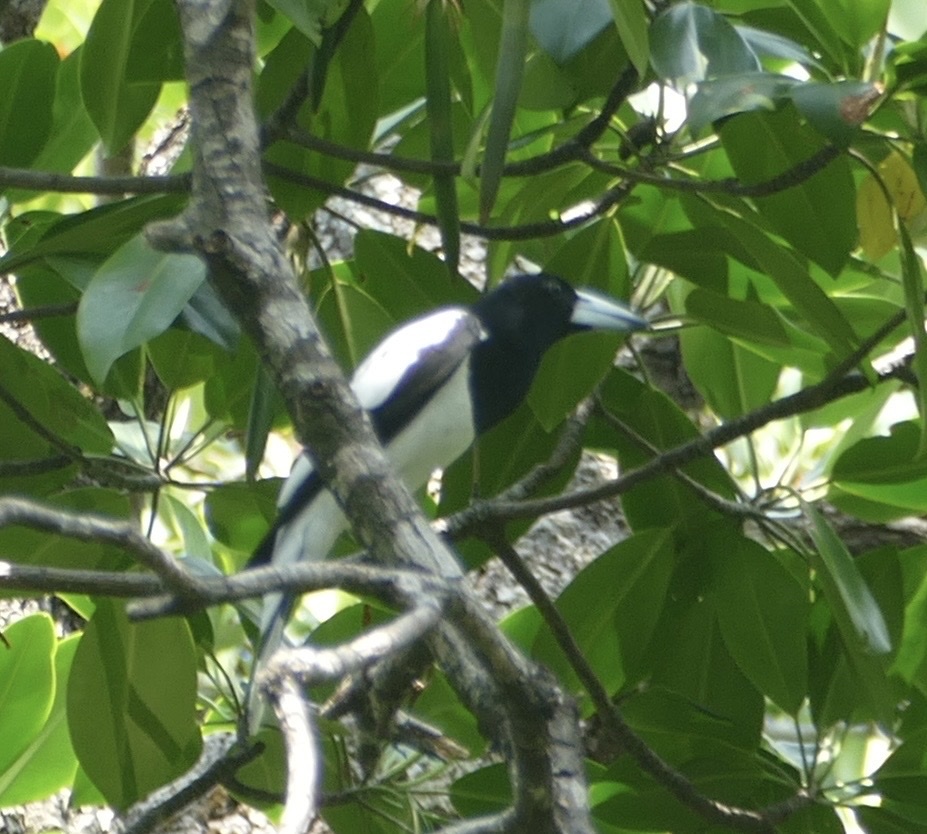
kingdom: Animalia
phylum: Chordata
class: Aves
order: Passeriformes
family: Cracticidae
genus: Cracticus
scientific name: Cracticus cassicus
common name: Hooded butcherbird
